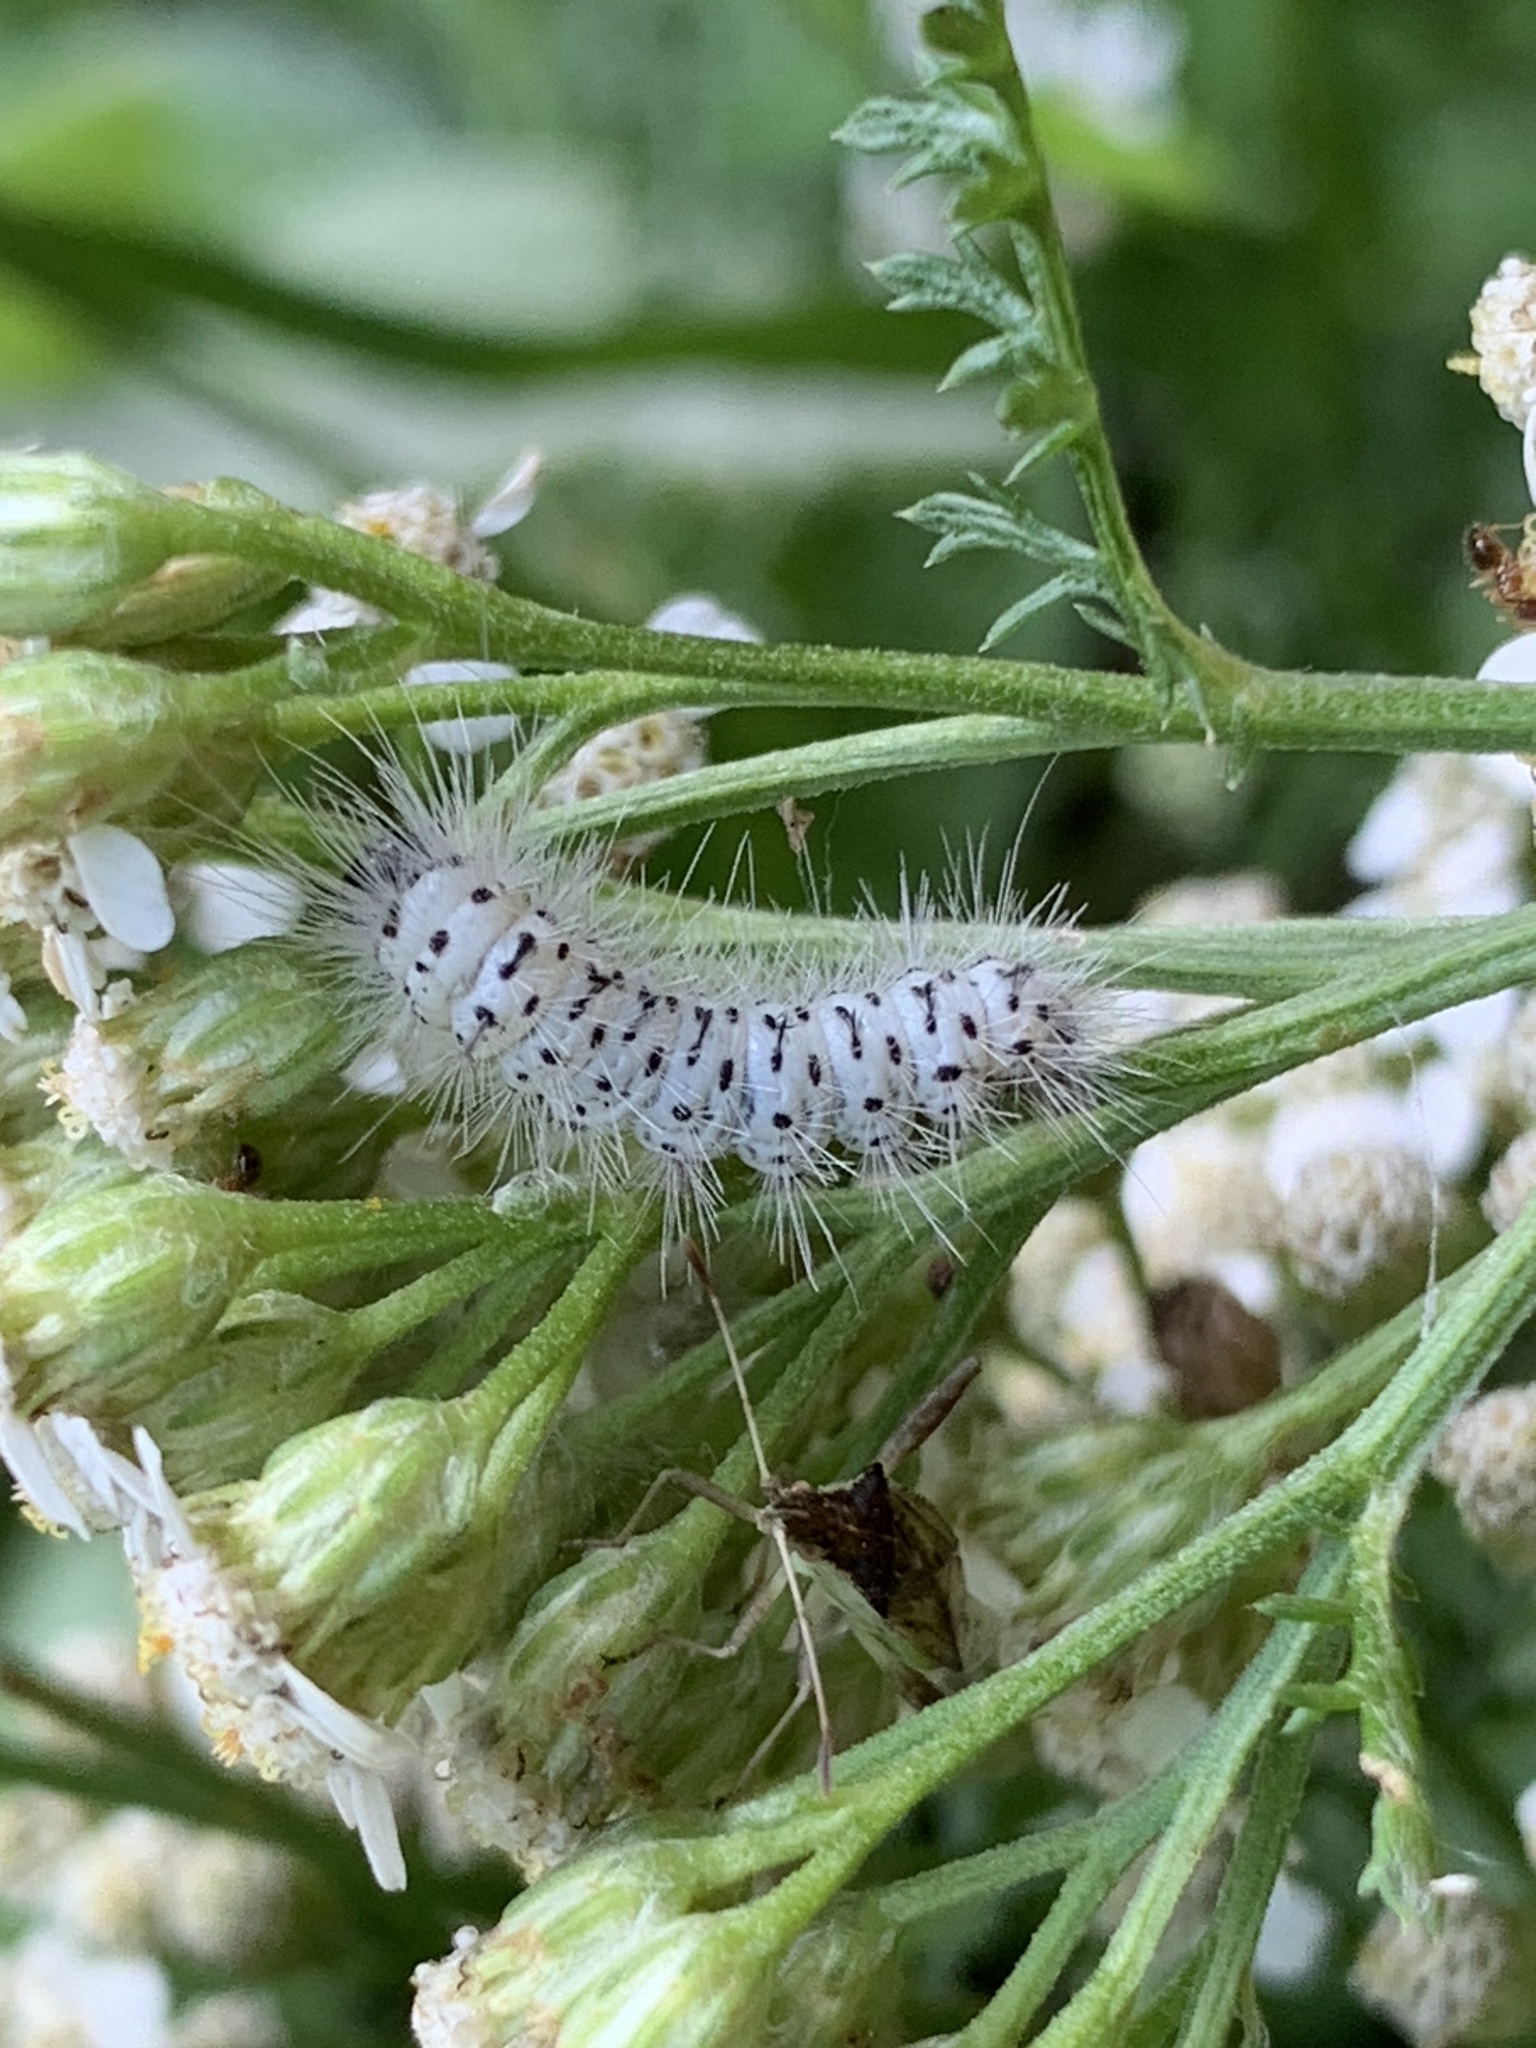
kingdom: Animalia
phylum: Arthropoda
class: Insecta
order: Lepidoptera
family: Erebidae
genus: Lophocampa
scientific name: Lophocampa caryae
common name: Hickory tussock moth
